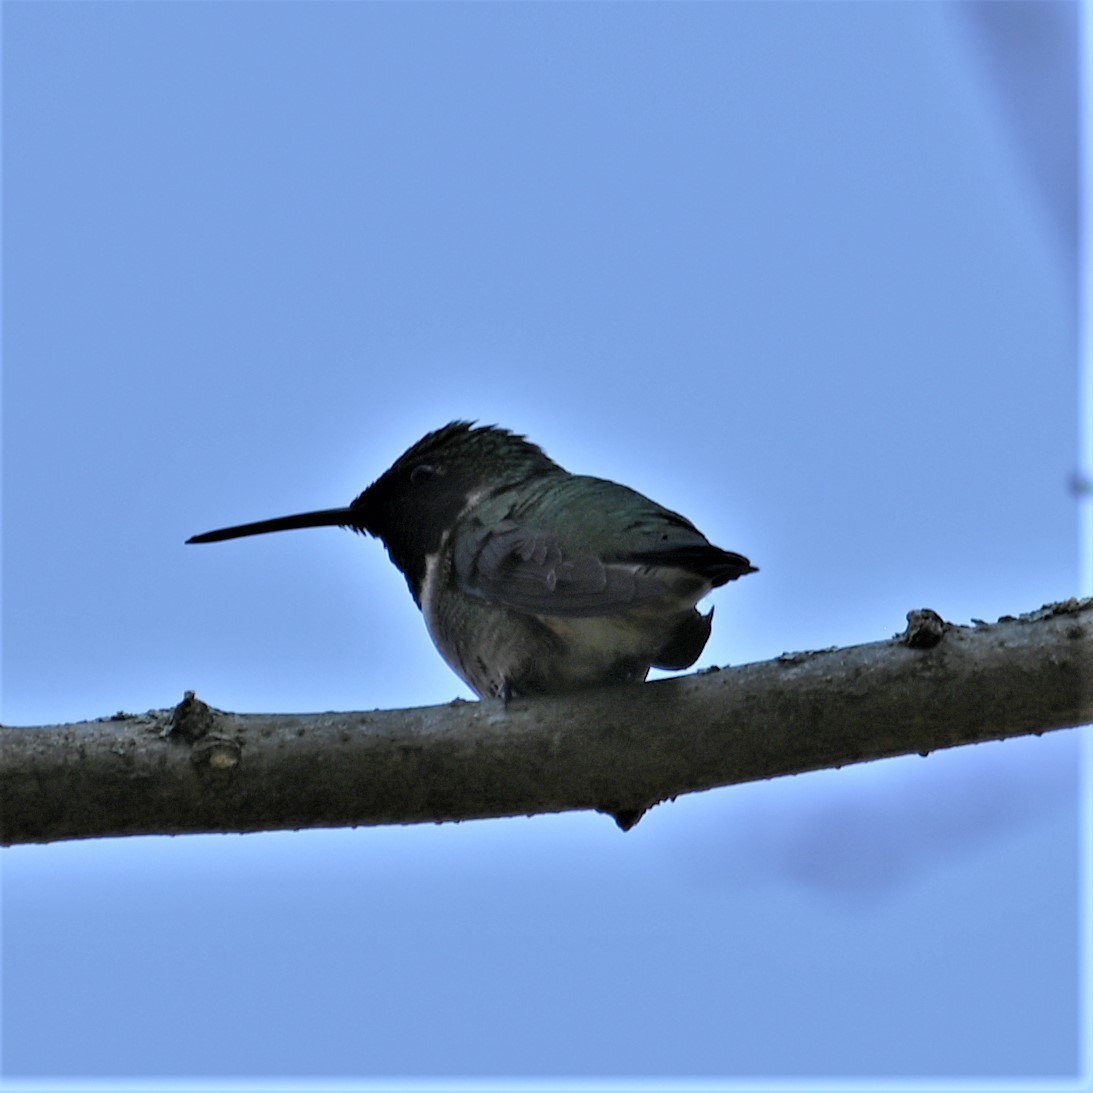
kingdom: Animalia
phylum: Chordata
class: Aves
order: Apodiformes
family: Trochilidae
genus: Archilochus
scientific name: Archilochus colubris
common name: Ruby-throated hummingbird
